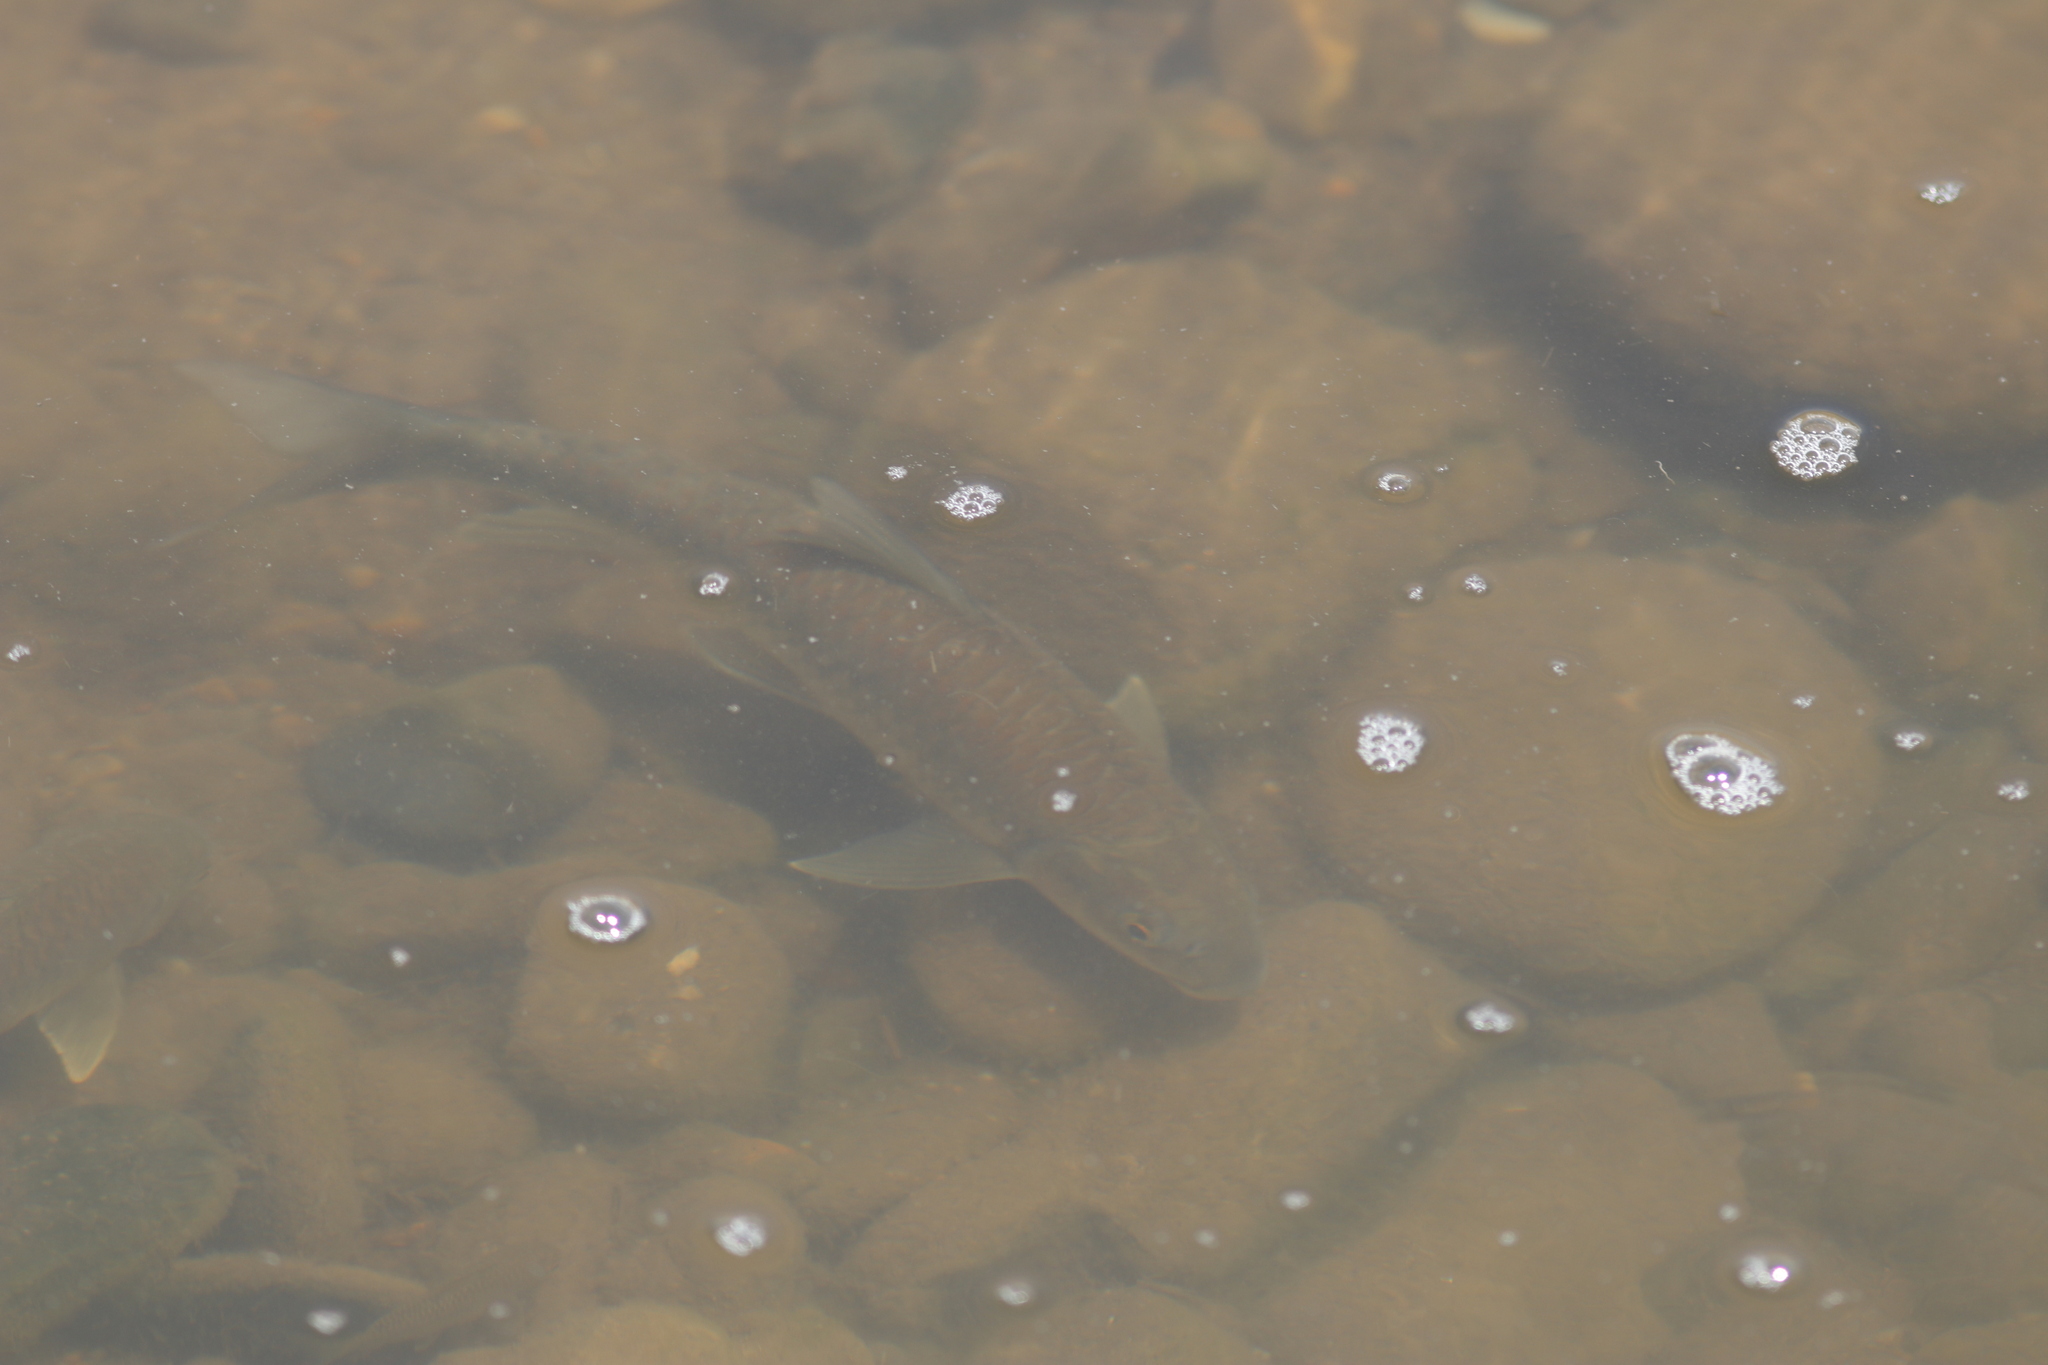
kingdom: Animalia
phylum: Chordata
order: Cypriniformes
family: Cyprinidae
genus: Labeobarbus
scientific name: Labeobarbus marequensis
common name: Largescale yellowfish
